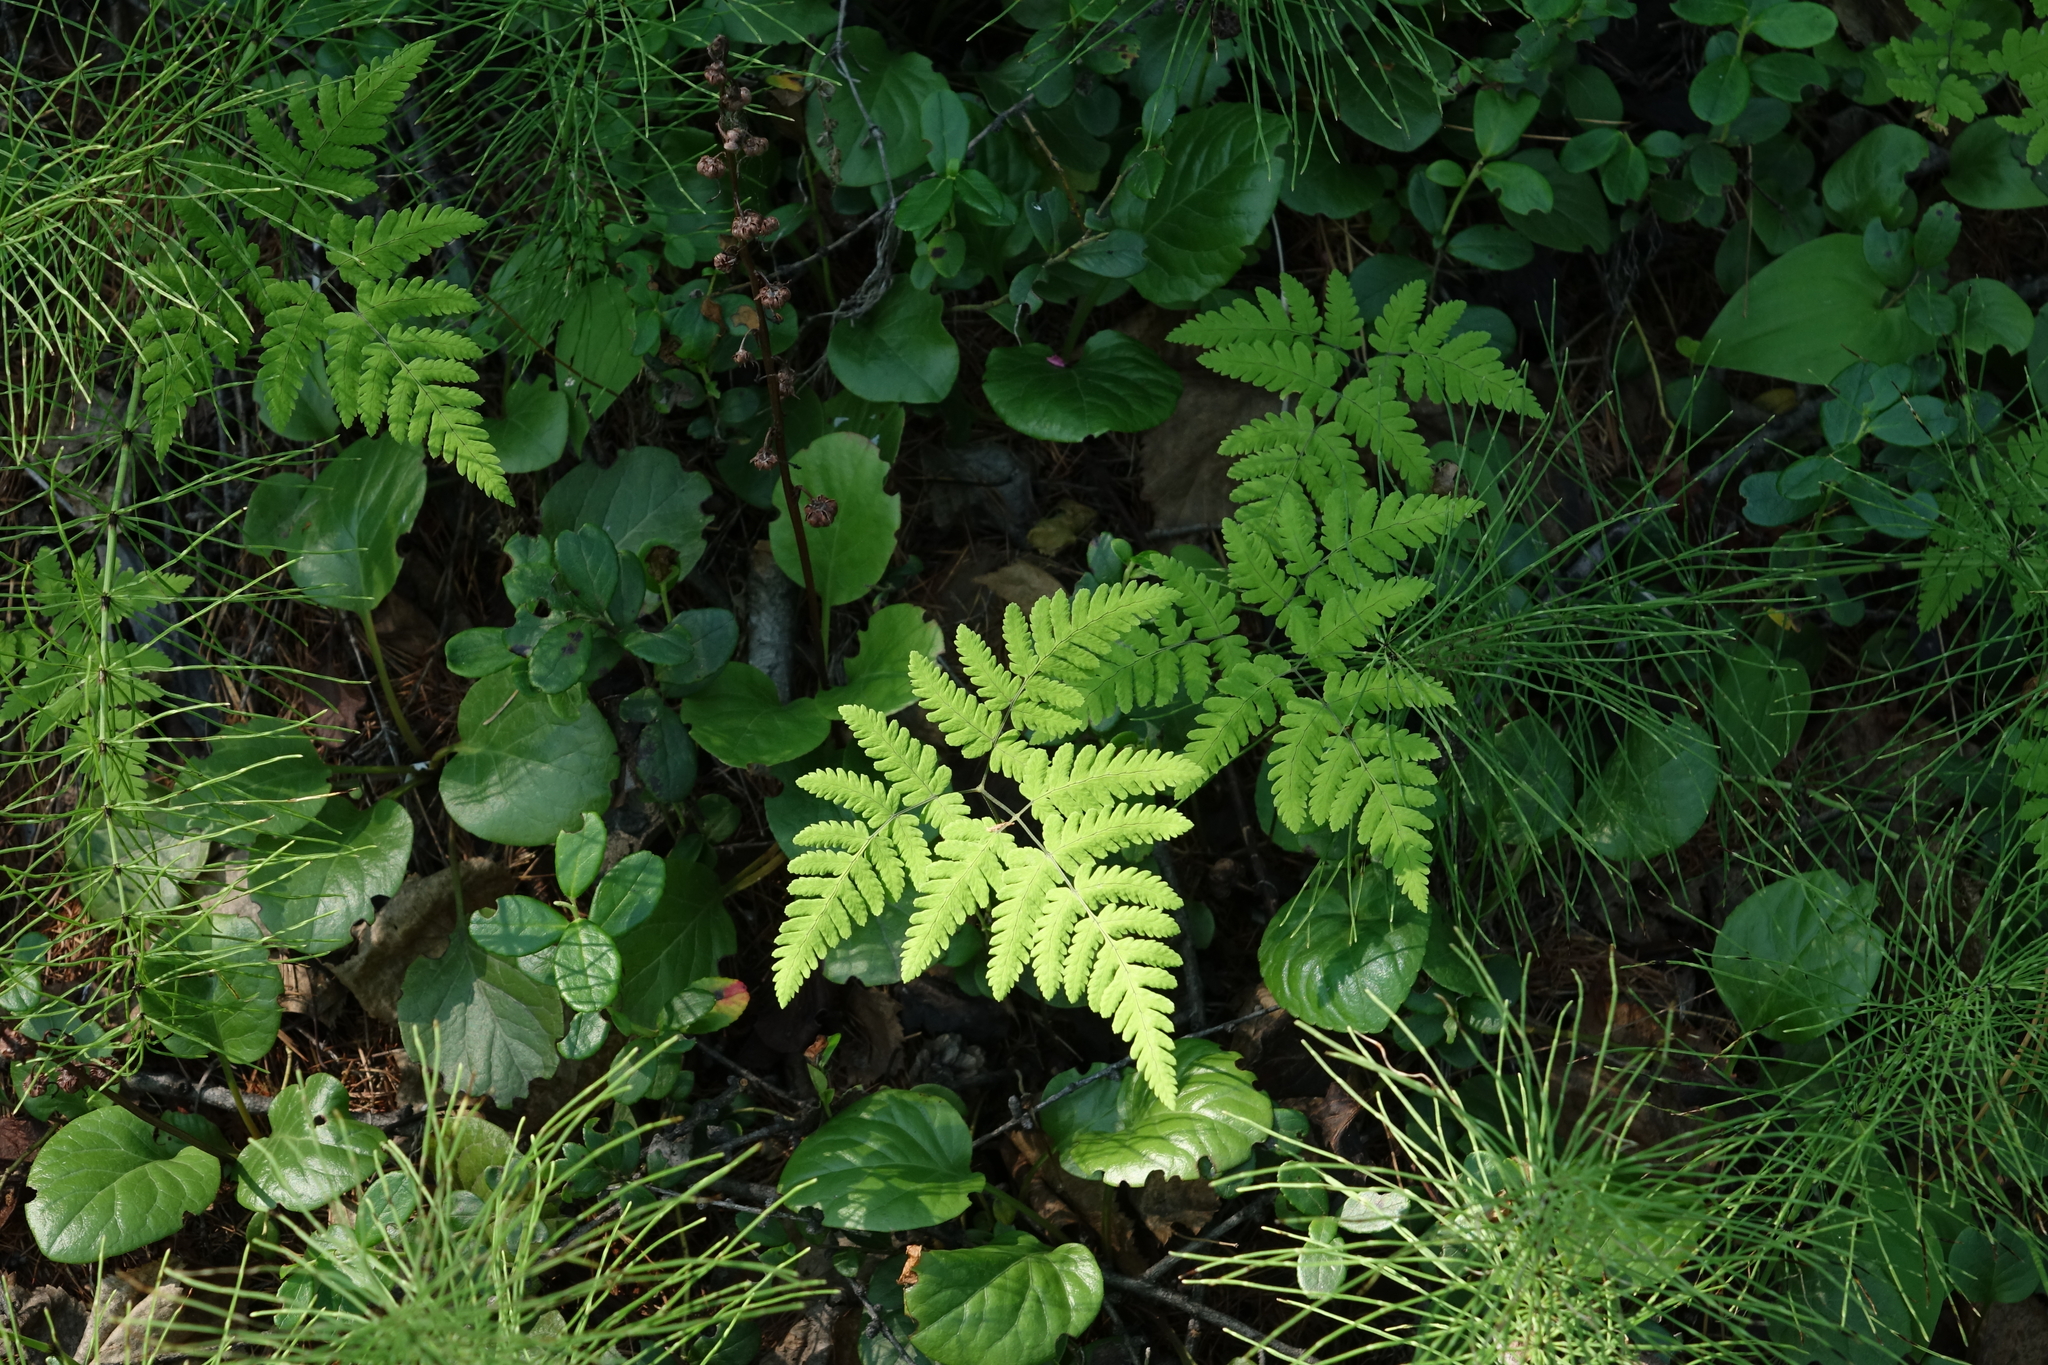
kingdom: Plantae
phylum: Tracheophyta
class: Polypodiopsida
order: Equisetales
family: Equisetaceae
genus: Equisetum
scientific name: Equisetum pratense
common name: Meadow horsetail
